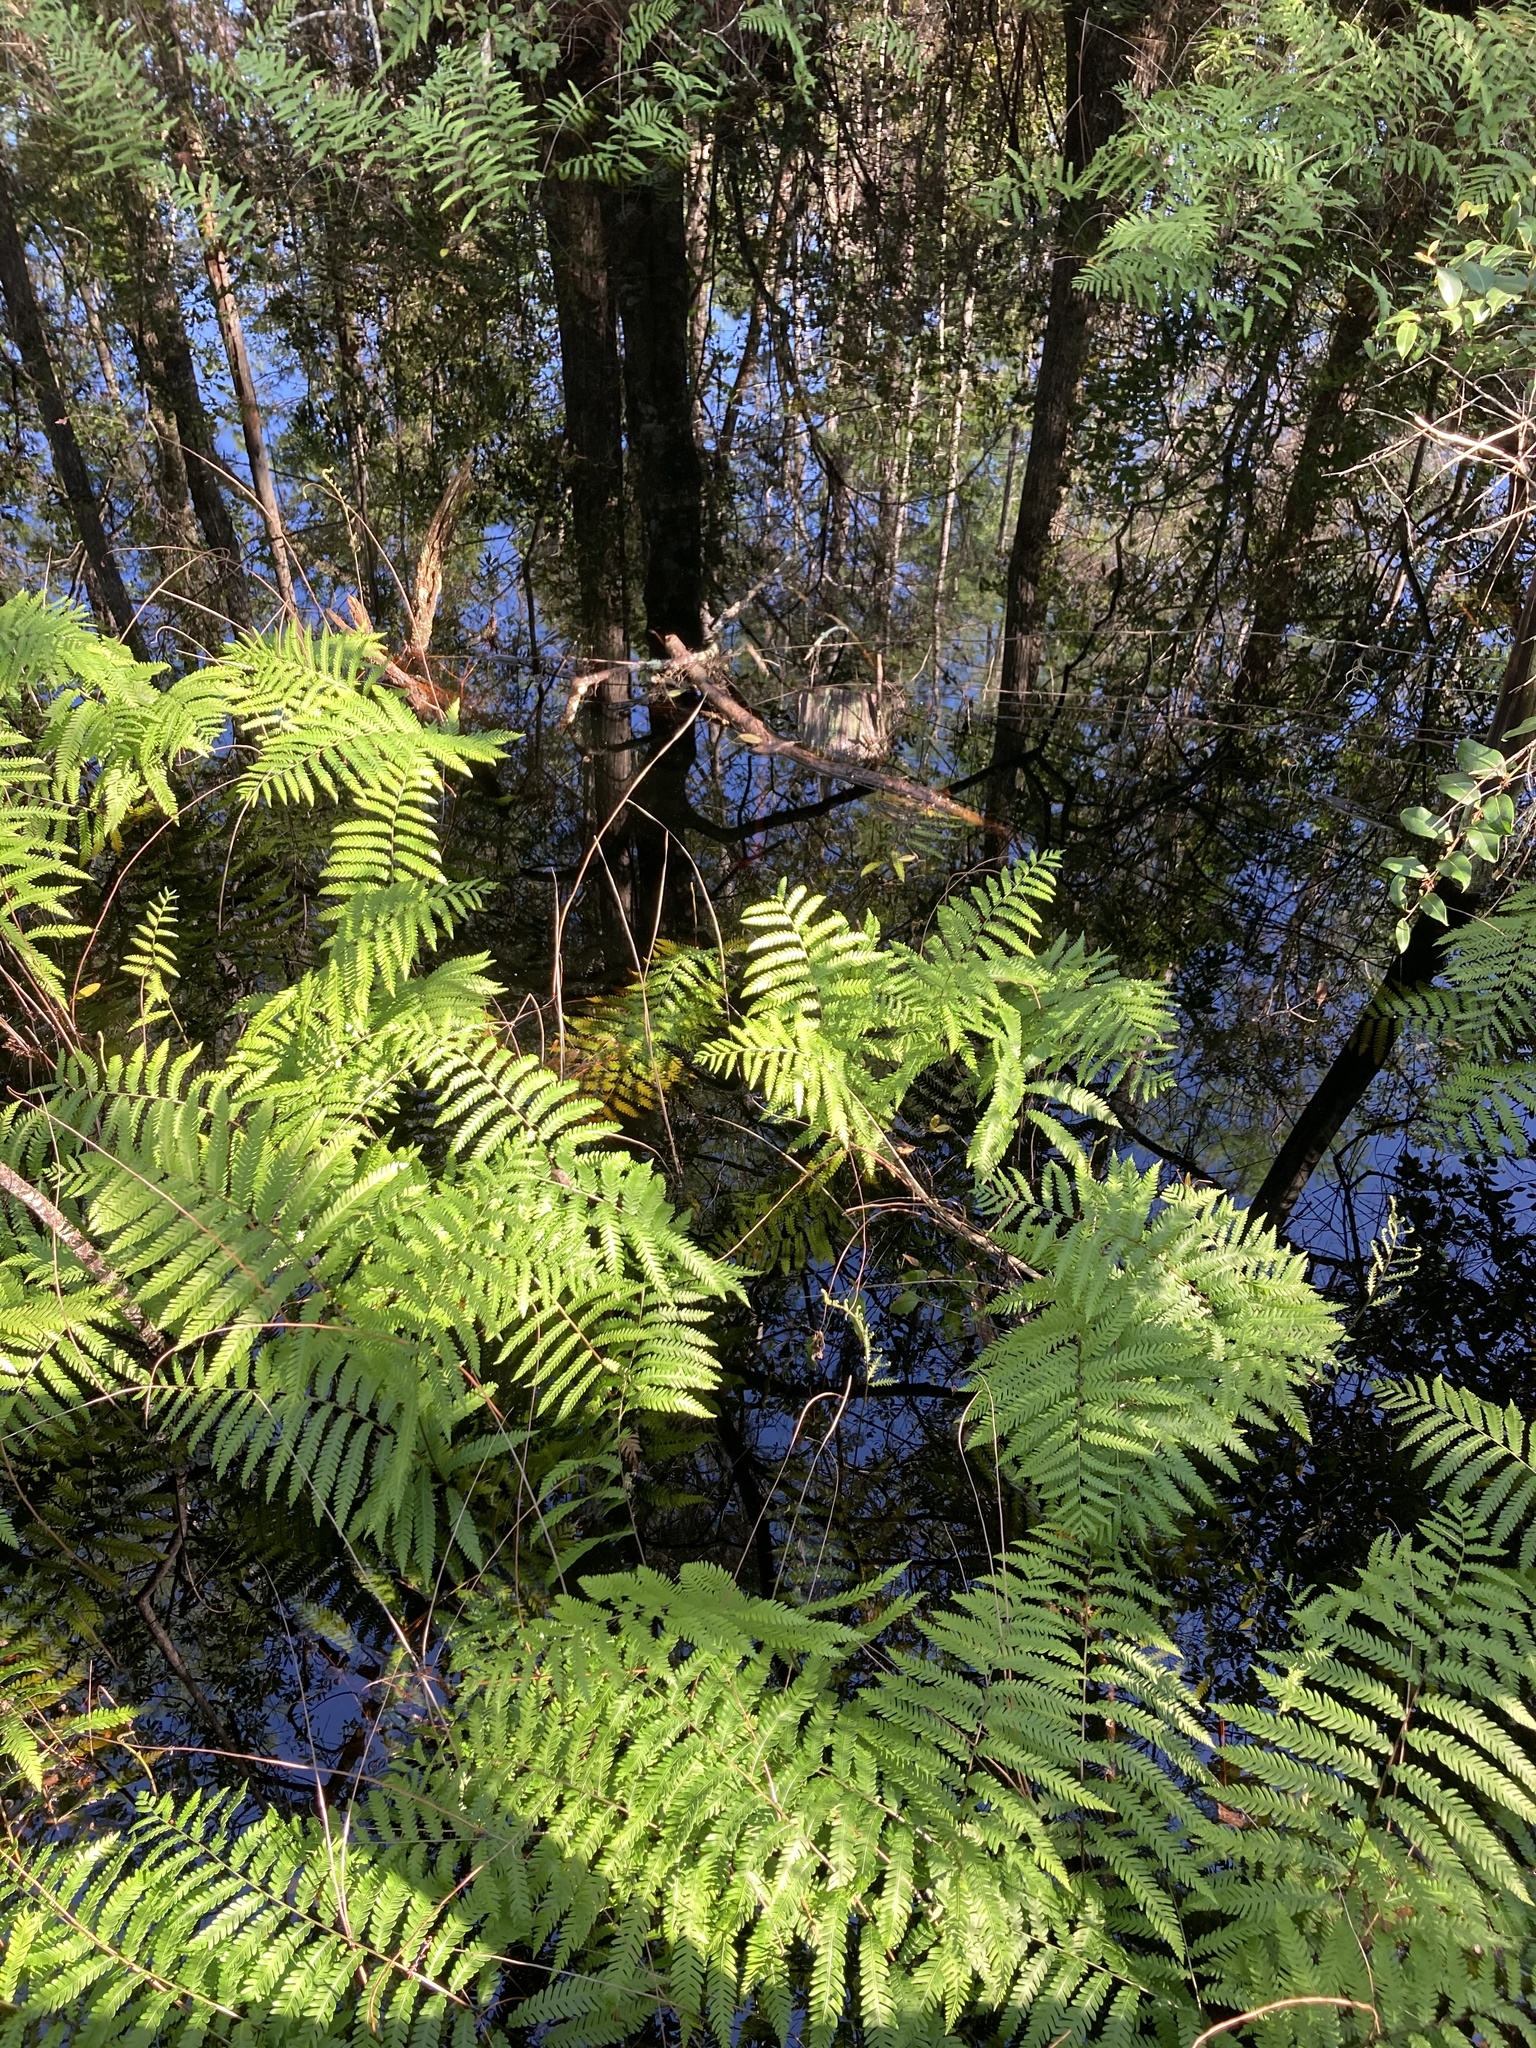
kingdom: Plantae
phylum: Tracheophyta
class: Polypodiopsida
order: Polypodiales
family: Blechnaceae
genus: Anchistea
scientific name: Anchistea virginica
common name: Virginia chain fern
